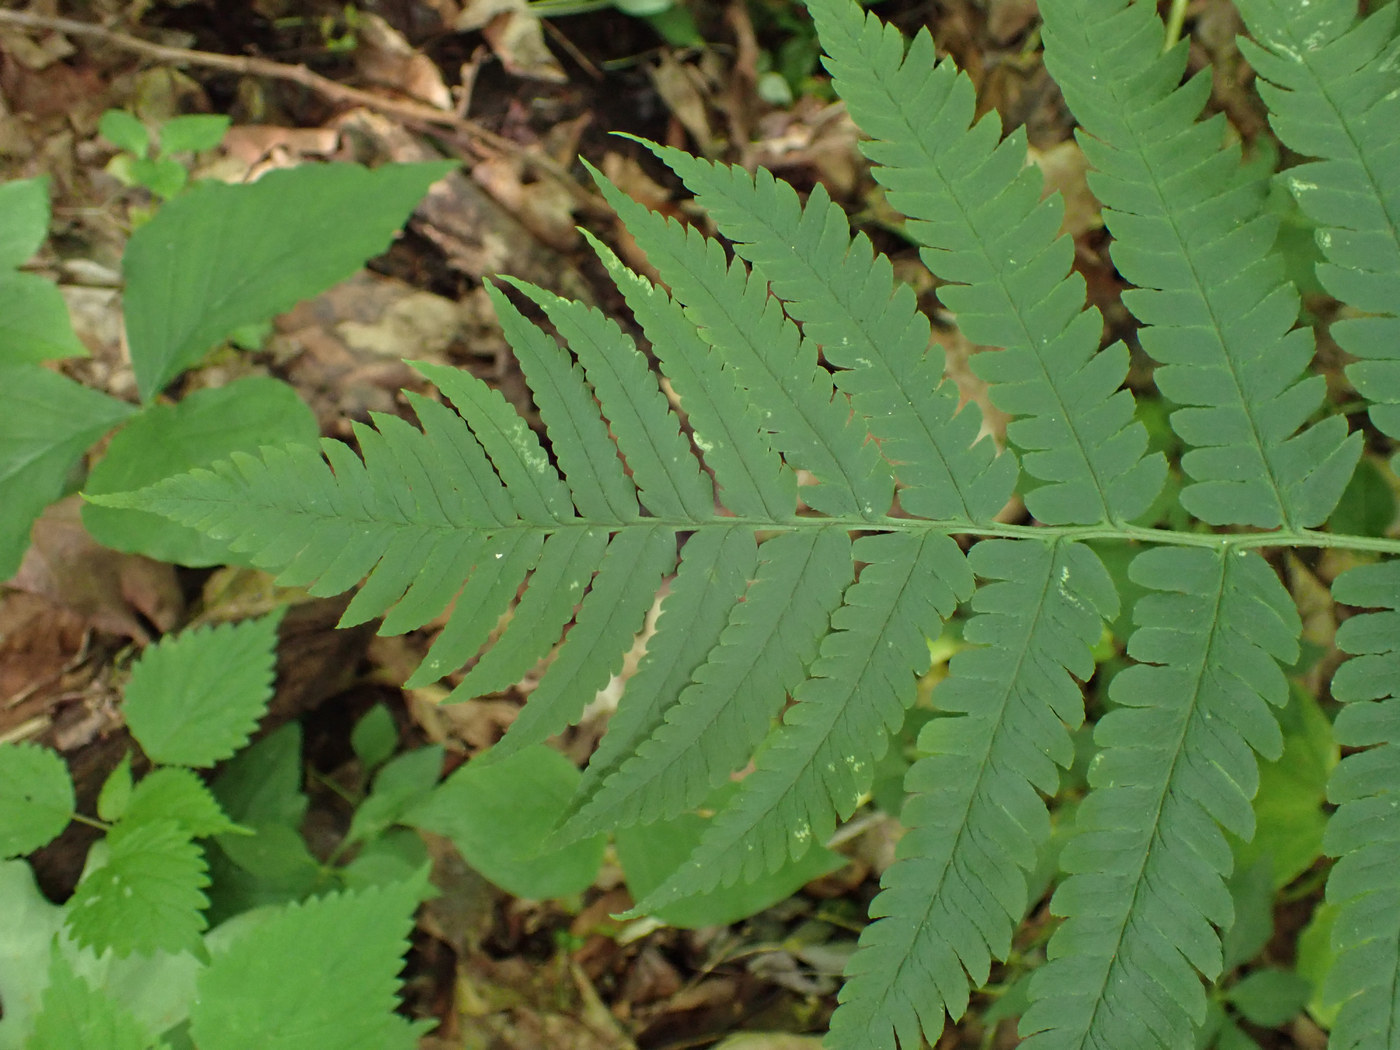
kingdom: Plantae
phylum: Tracheophyta
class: Polypodiopsida
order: Polypodiales
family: Dryopteridaceae
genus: Dryopteris
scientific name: Dryopteris goldieana
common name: Goldie's fern
